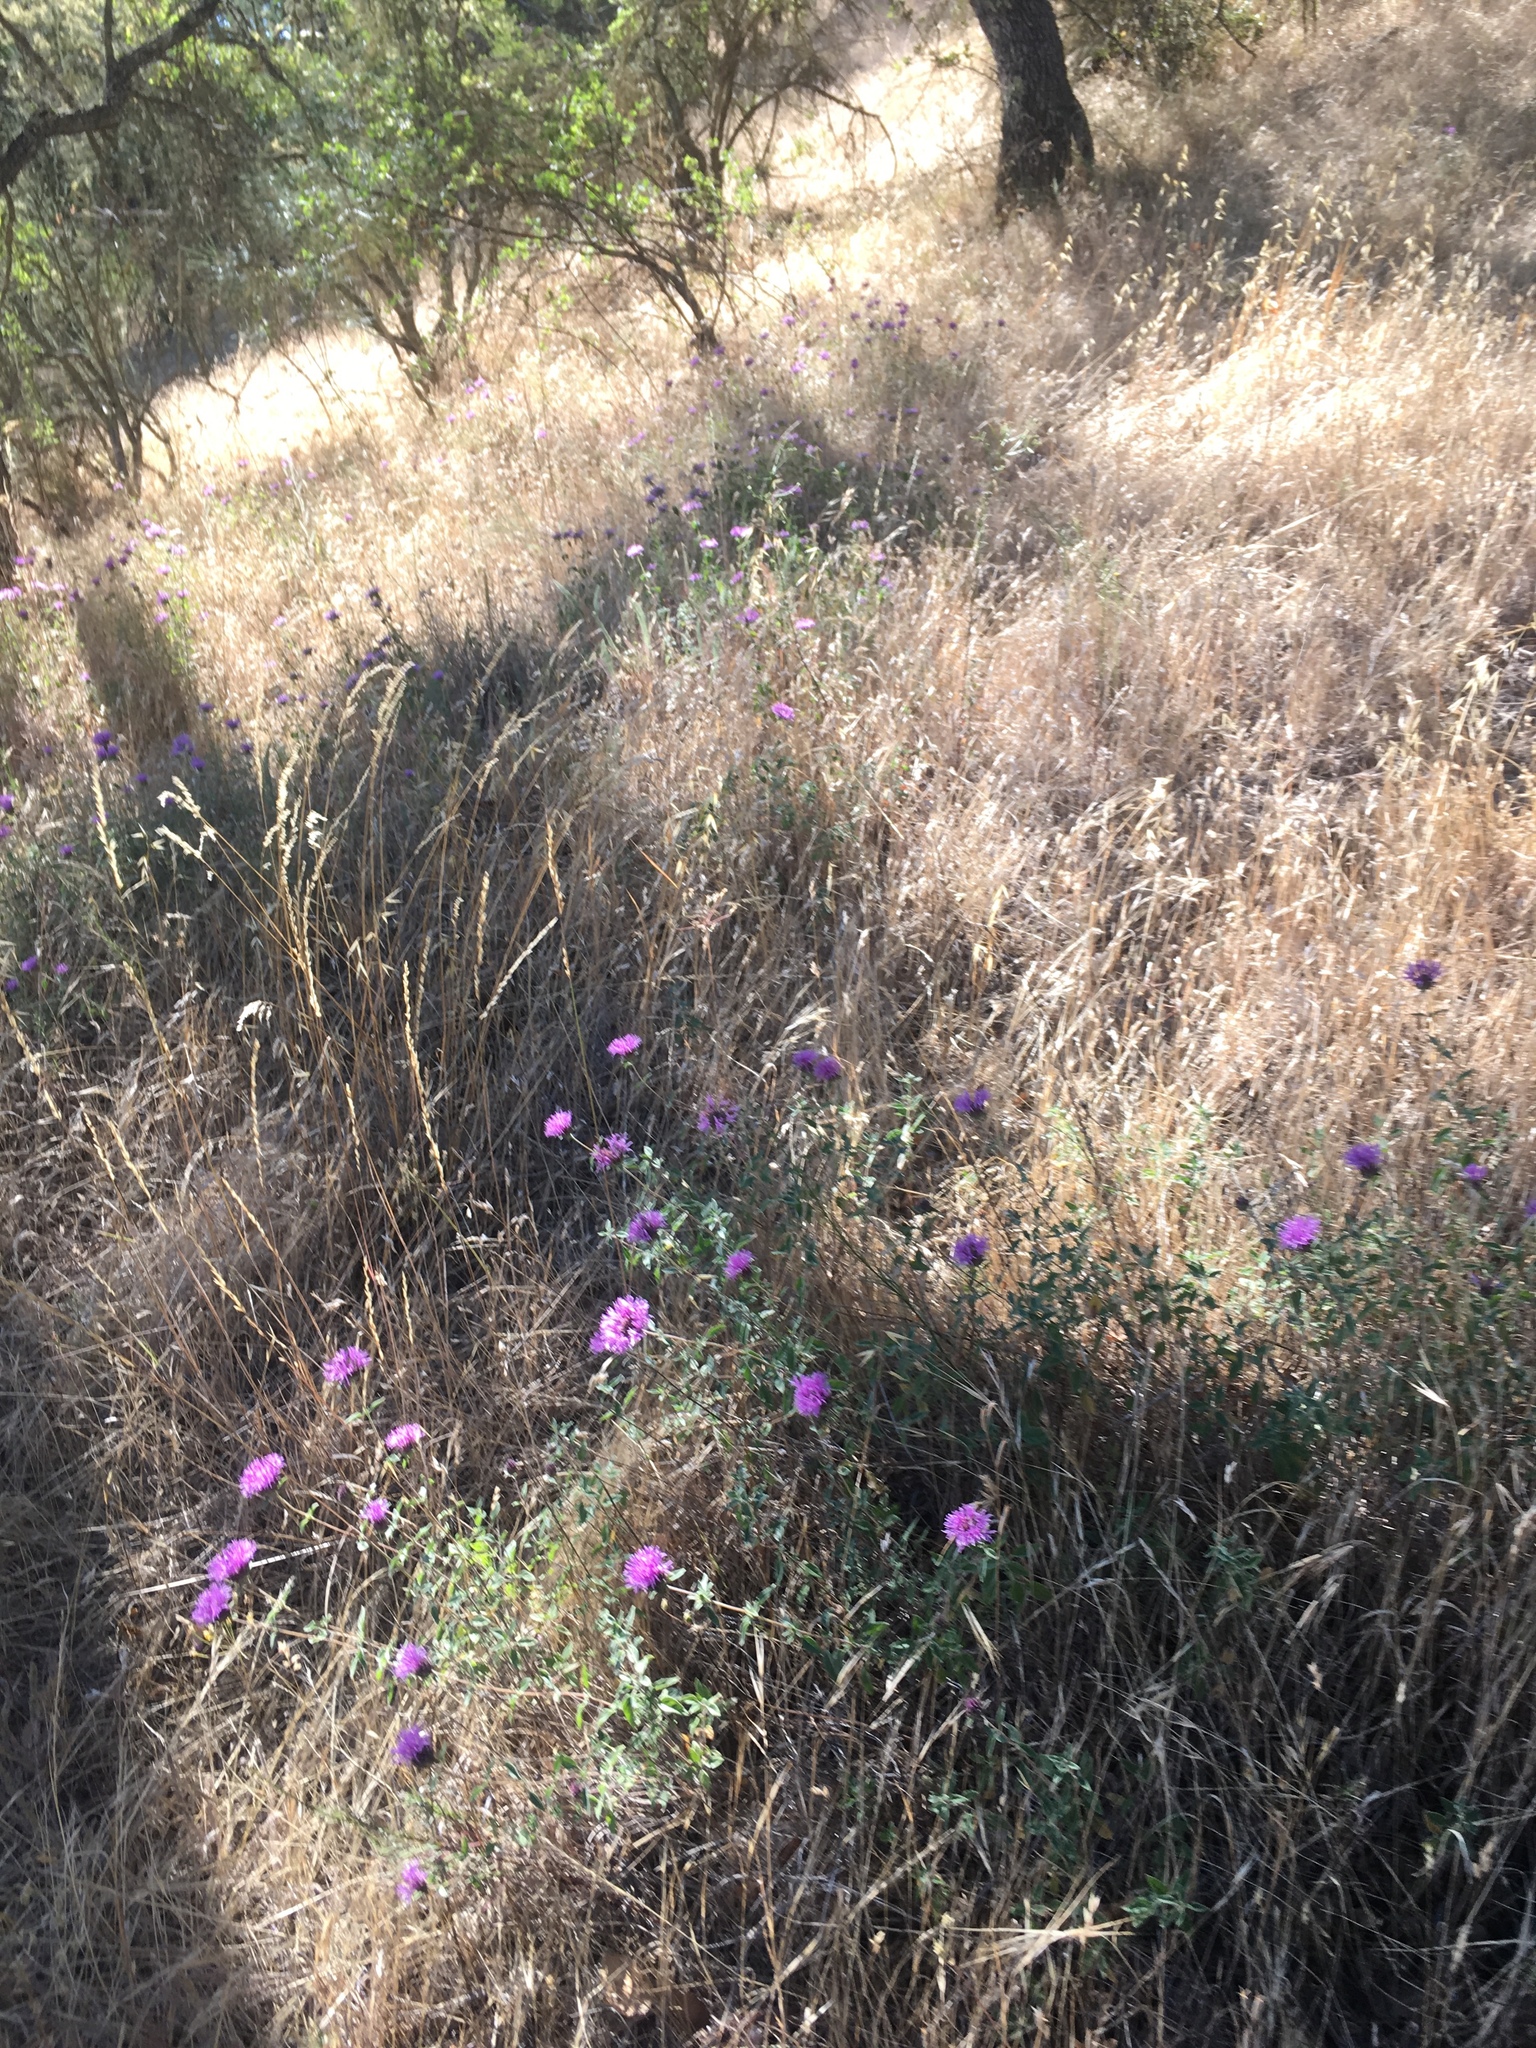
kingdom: Plantae
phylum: Tracheophyta
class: Magnoliopsida
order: Lamiales
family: Lamiaceae
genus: Monardella
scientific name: Monardella odoratissima
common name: Pacific monardella
